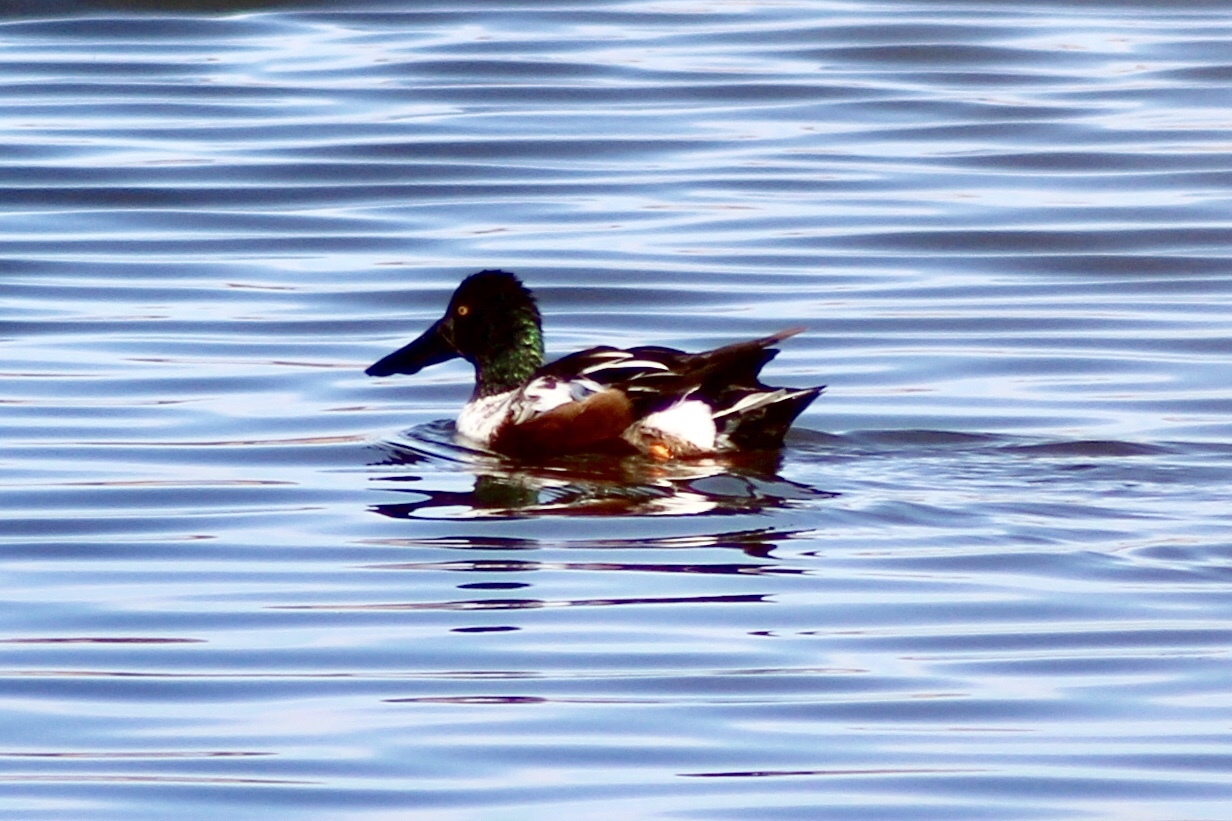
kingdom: Animalia
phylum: Chordata
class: Aves
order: Anseriformes
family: Anatidae
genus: Spatula
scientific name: Spatula clypeata
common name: Northern shoveler
